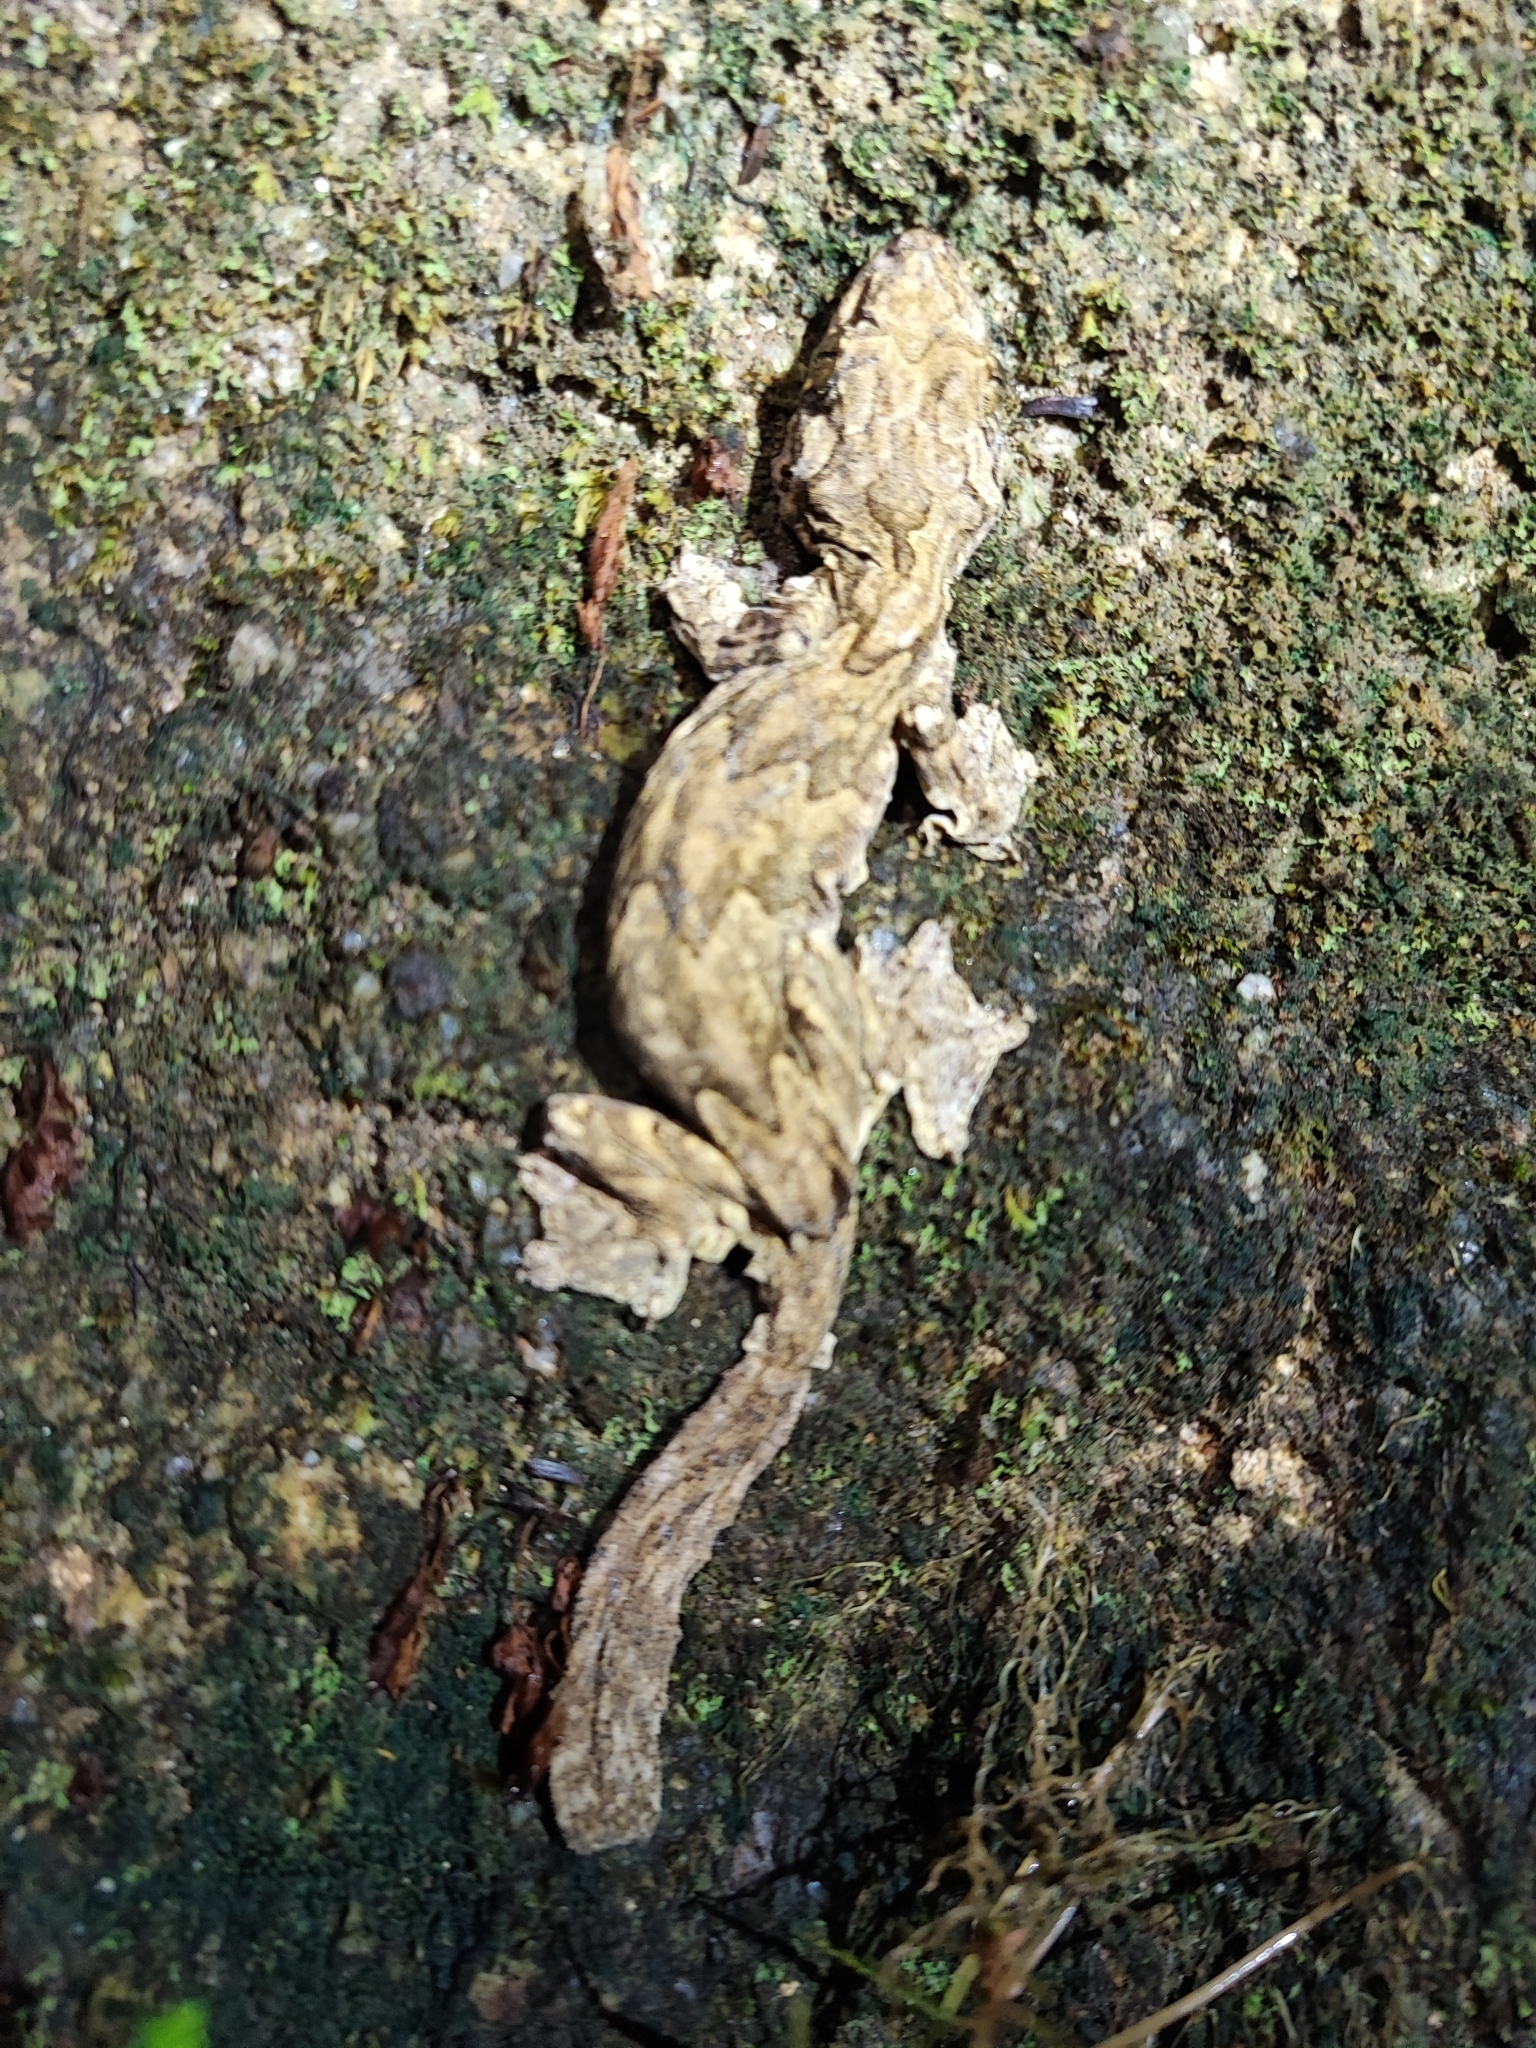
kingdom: Animalia
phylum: Chordata
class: Squamata
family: Gekkonidae
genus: Gekko
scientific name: Gekko tokehos
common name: Cambodian parachute gecko
